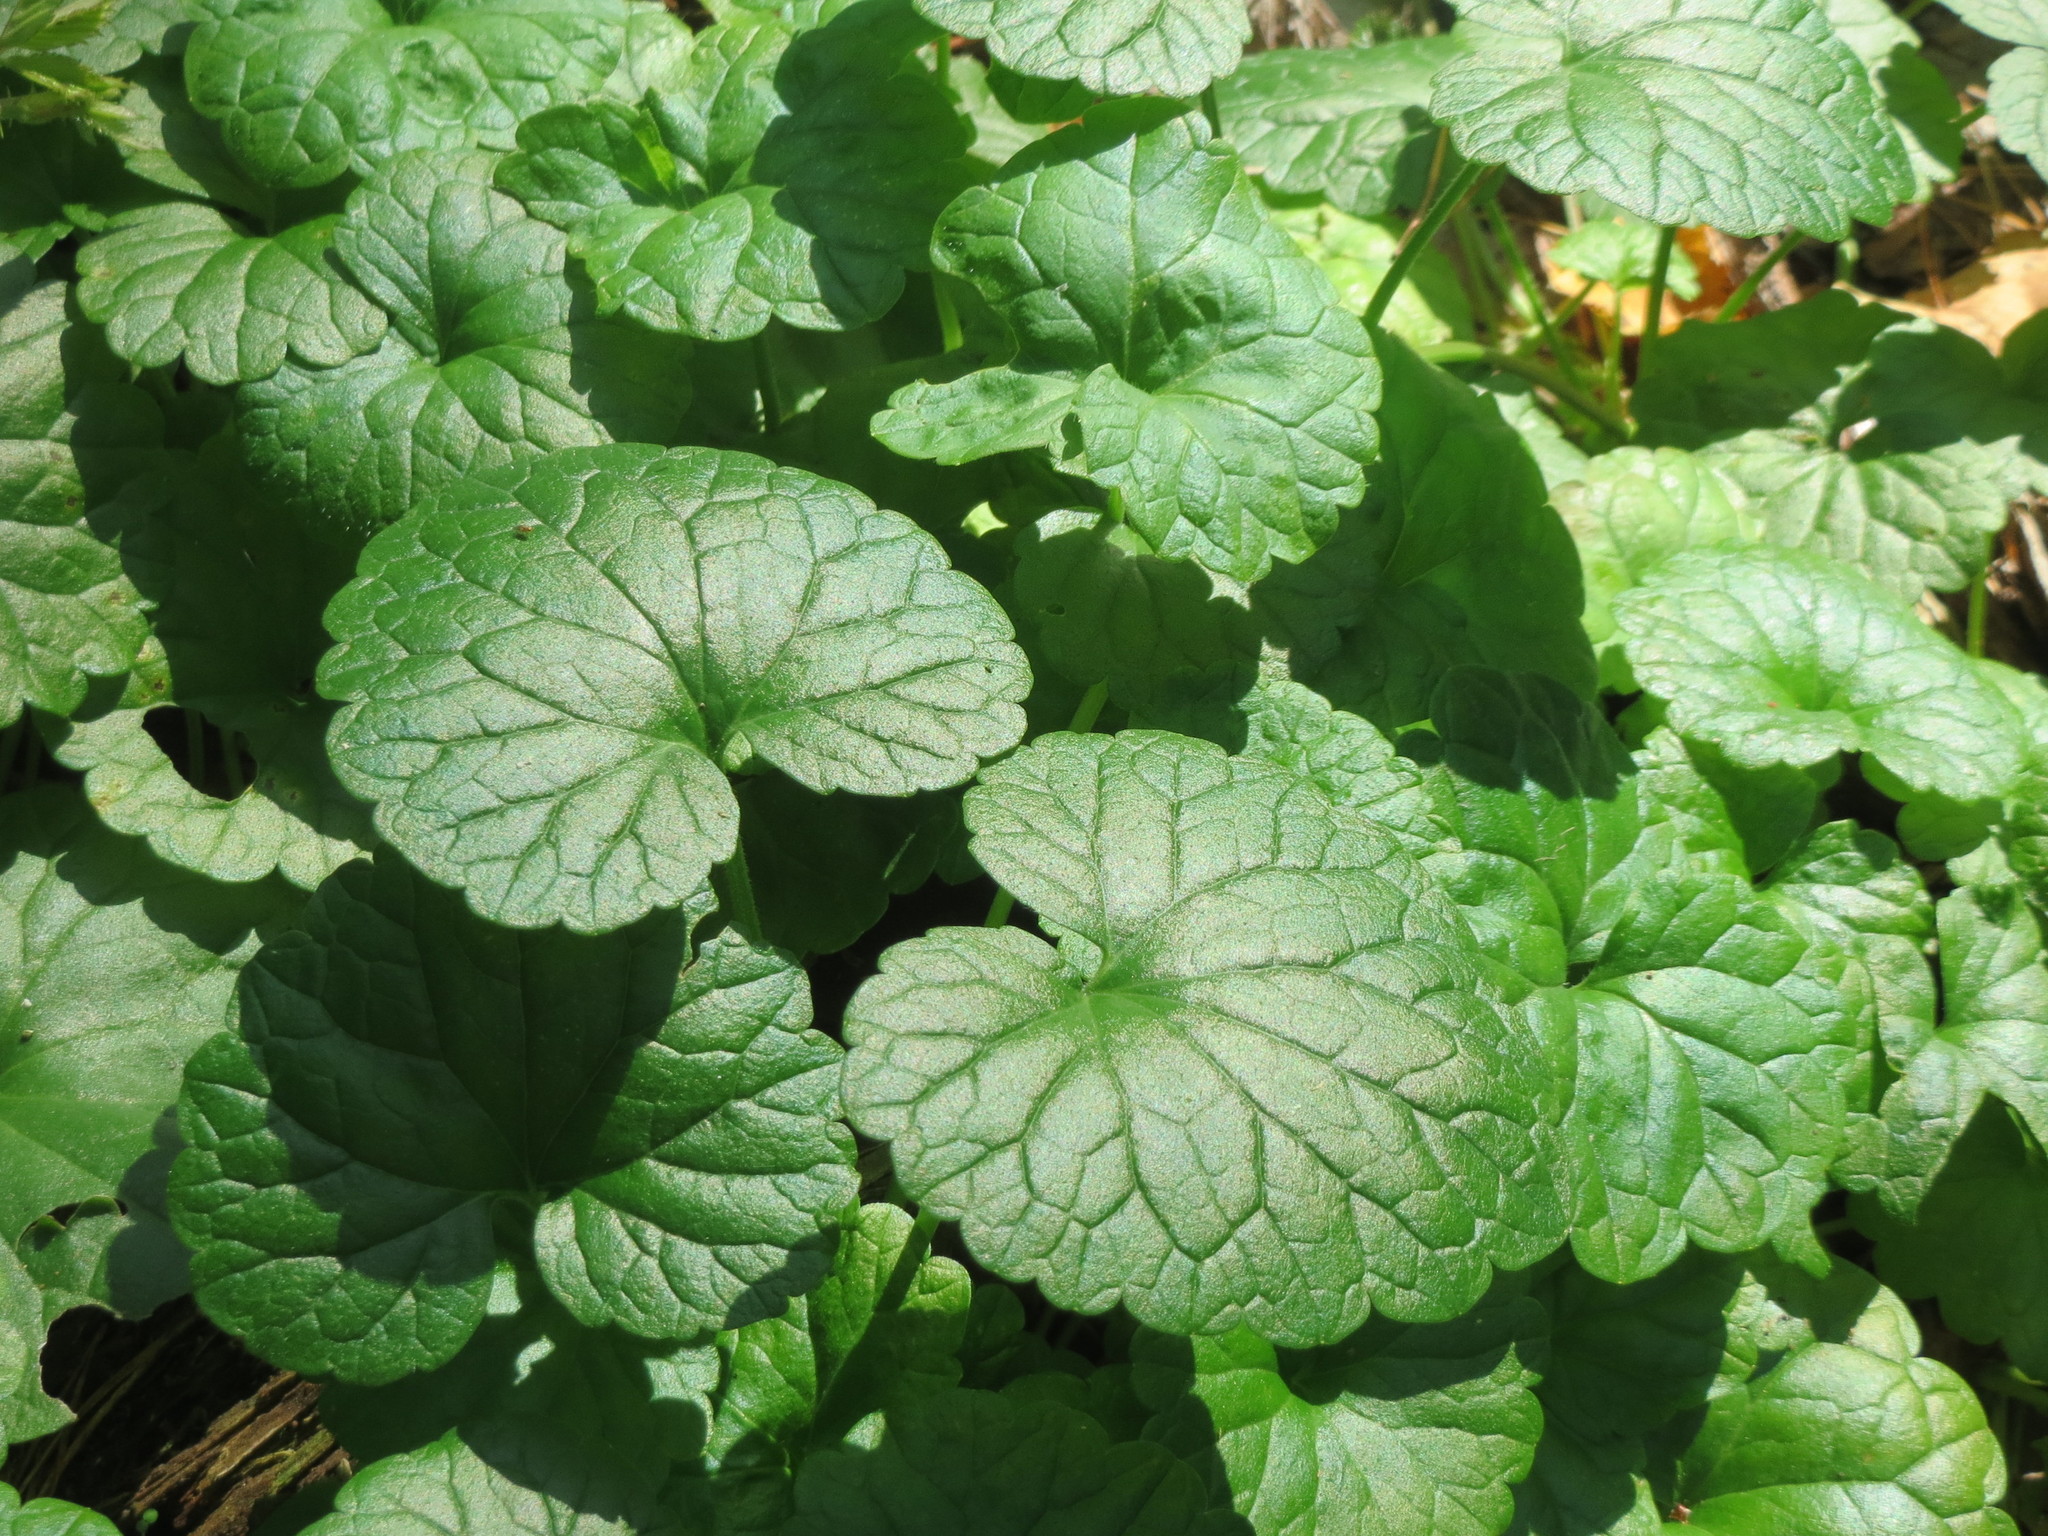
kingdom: Plantae
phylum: Tracheophyta
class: Magnoliopsida
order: Lamiales
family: Lamiaceae
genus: Glechoma
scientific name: Glechoma hederacea
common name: Ground ivy
